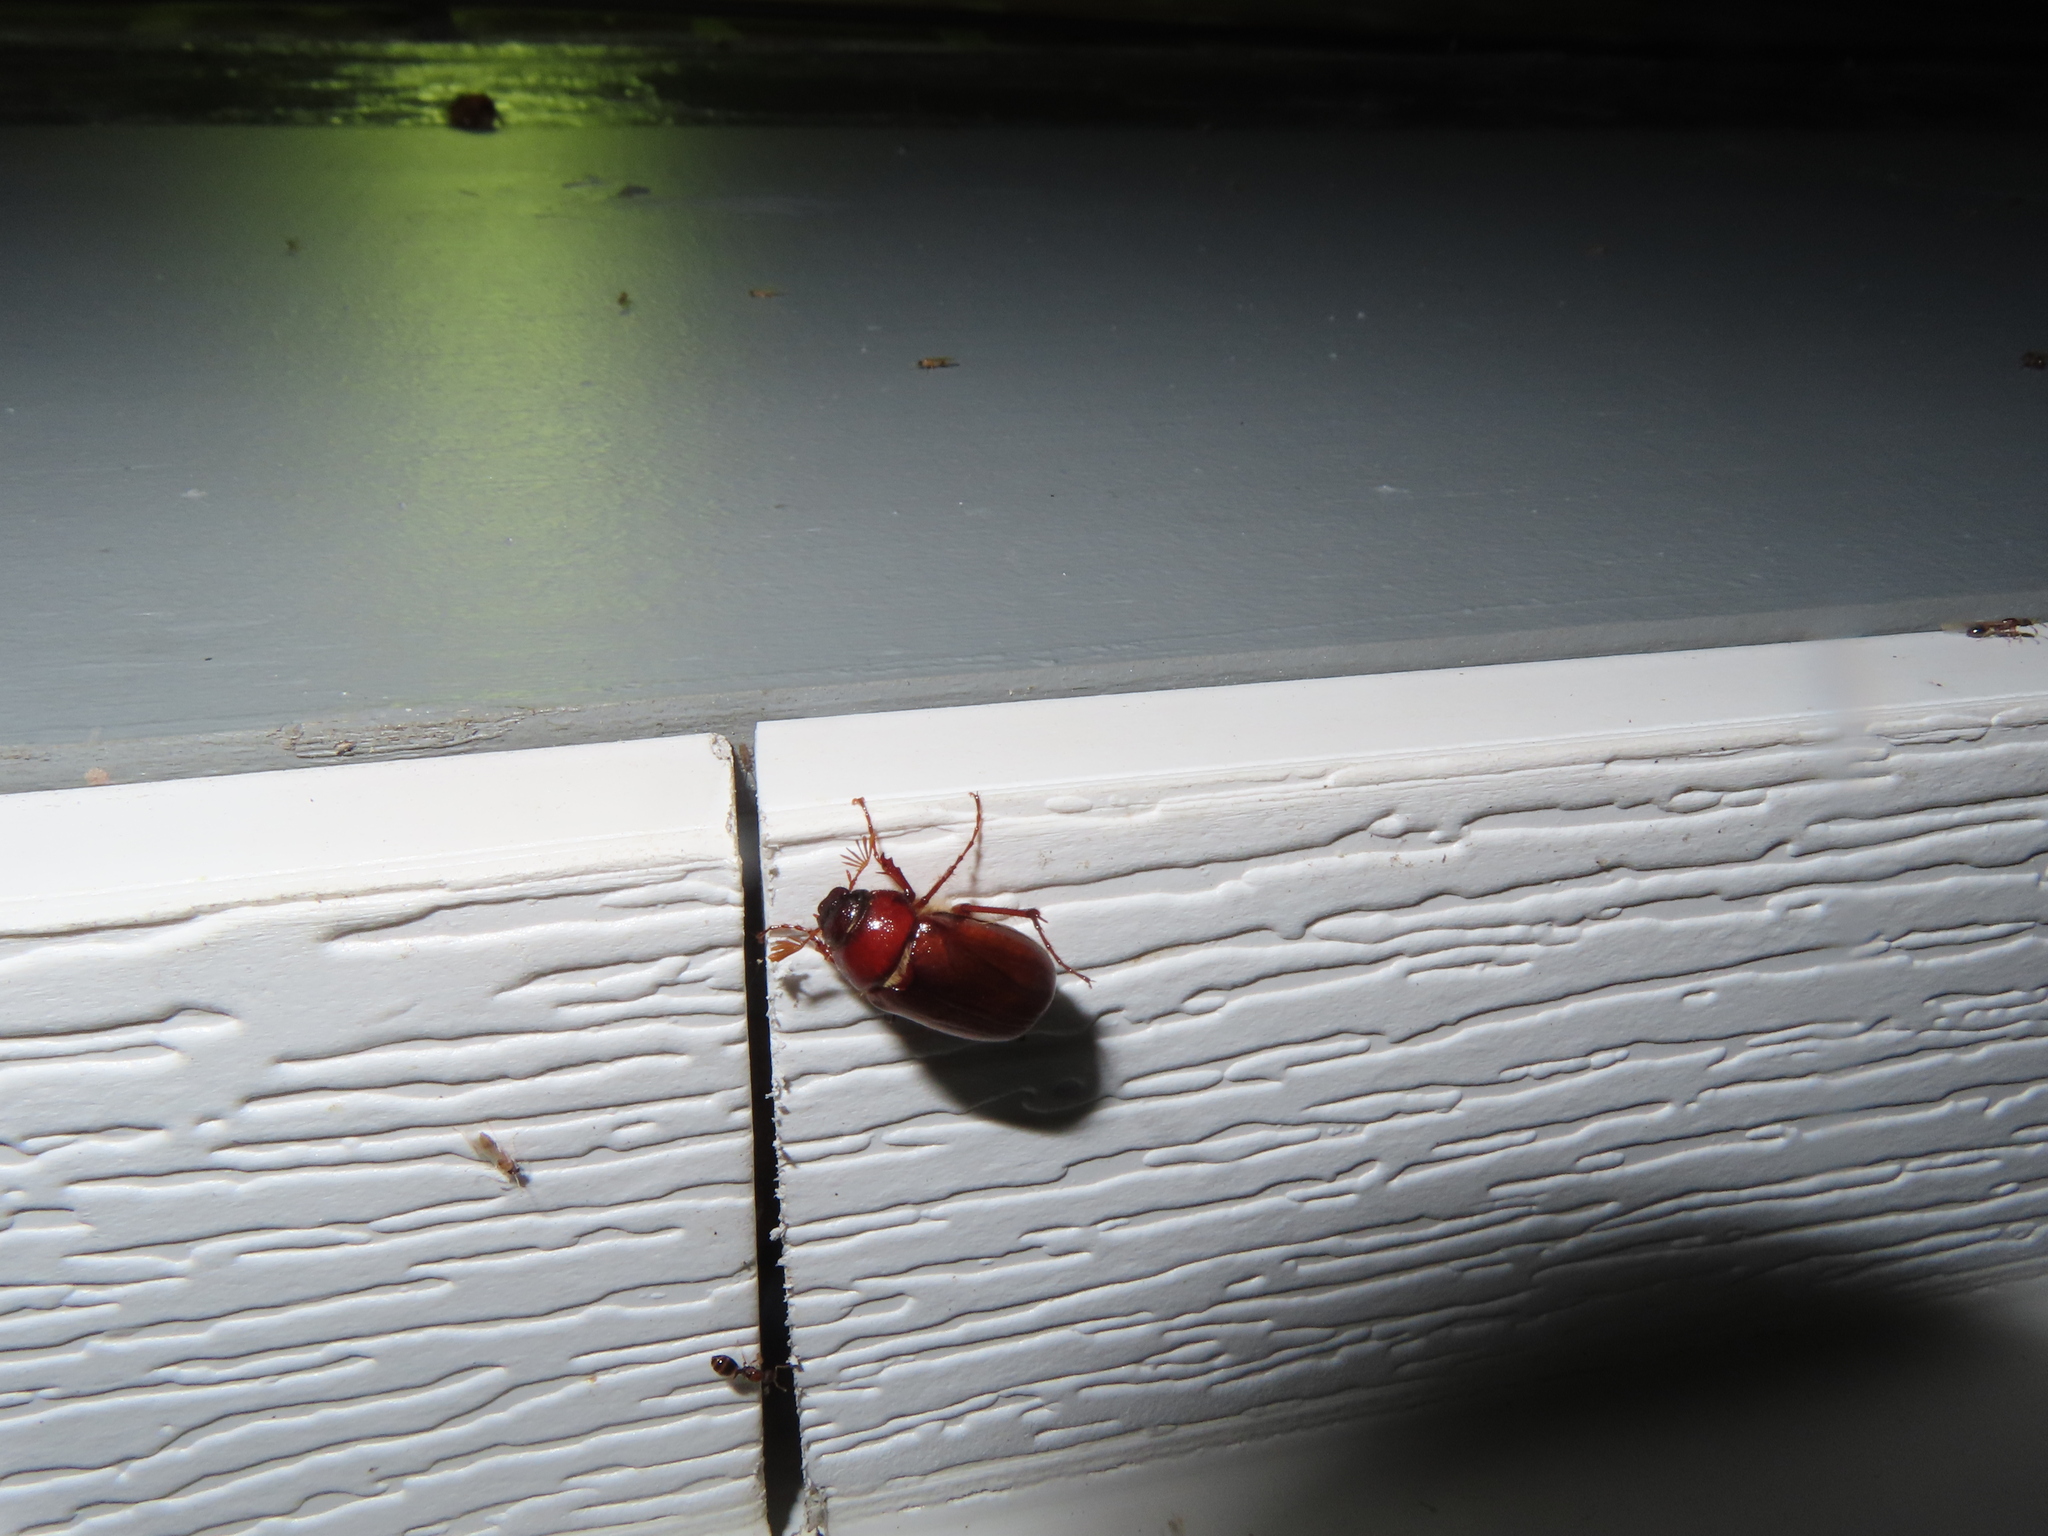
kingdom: Animalia
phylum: Arthropoda
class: Insecta
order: Coleoptera
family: Scarabaeidae
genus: Cyclocephala
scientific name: Cyclocephala lurida
